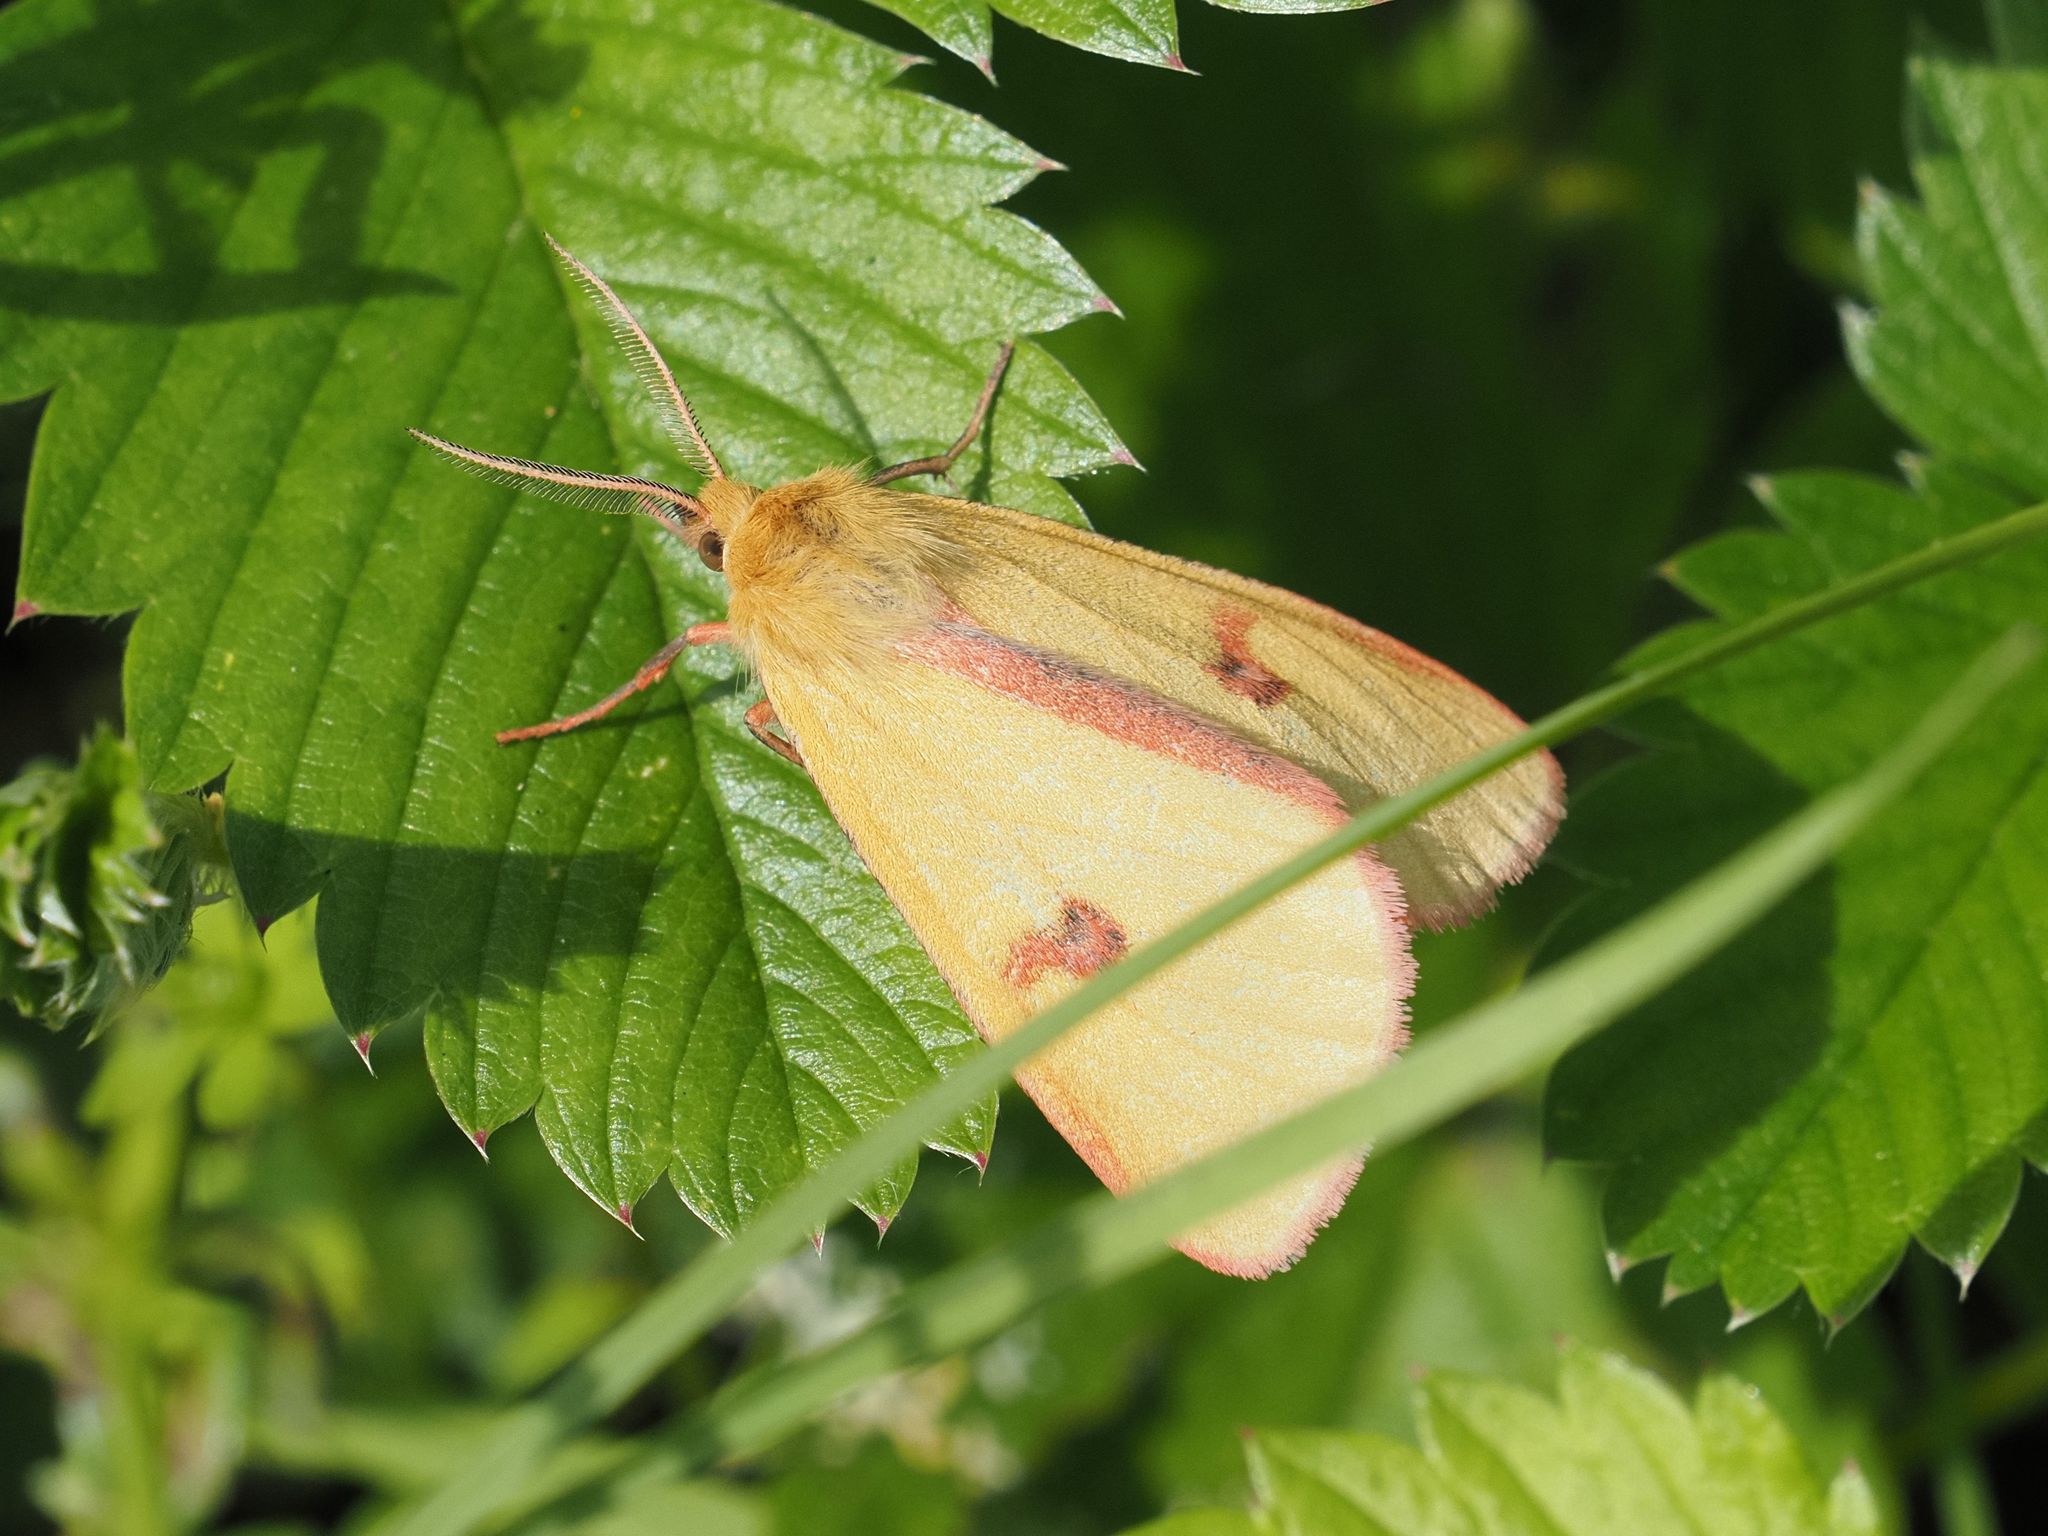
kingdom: Animalia
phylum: Arthropoda
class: Insecta
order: Lepidoptera
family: Erebidae
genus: Diacrisia
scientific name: Diacrisia sannio
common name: Clouded buff
